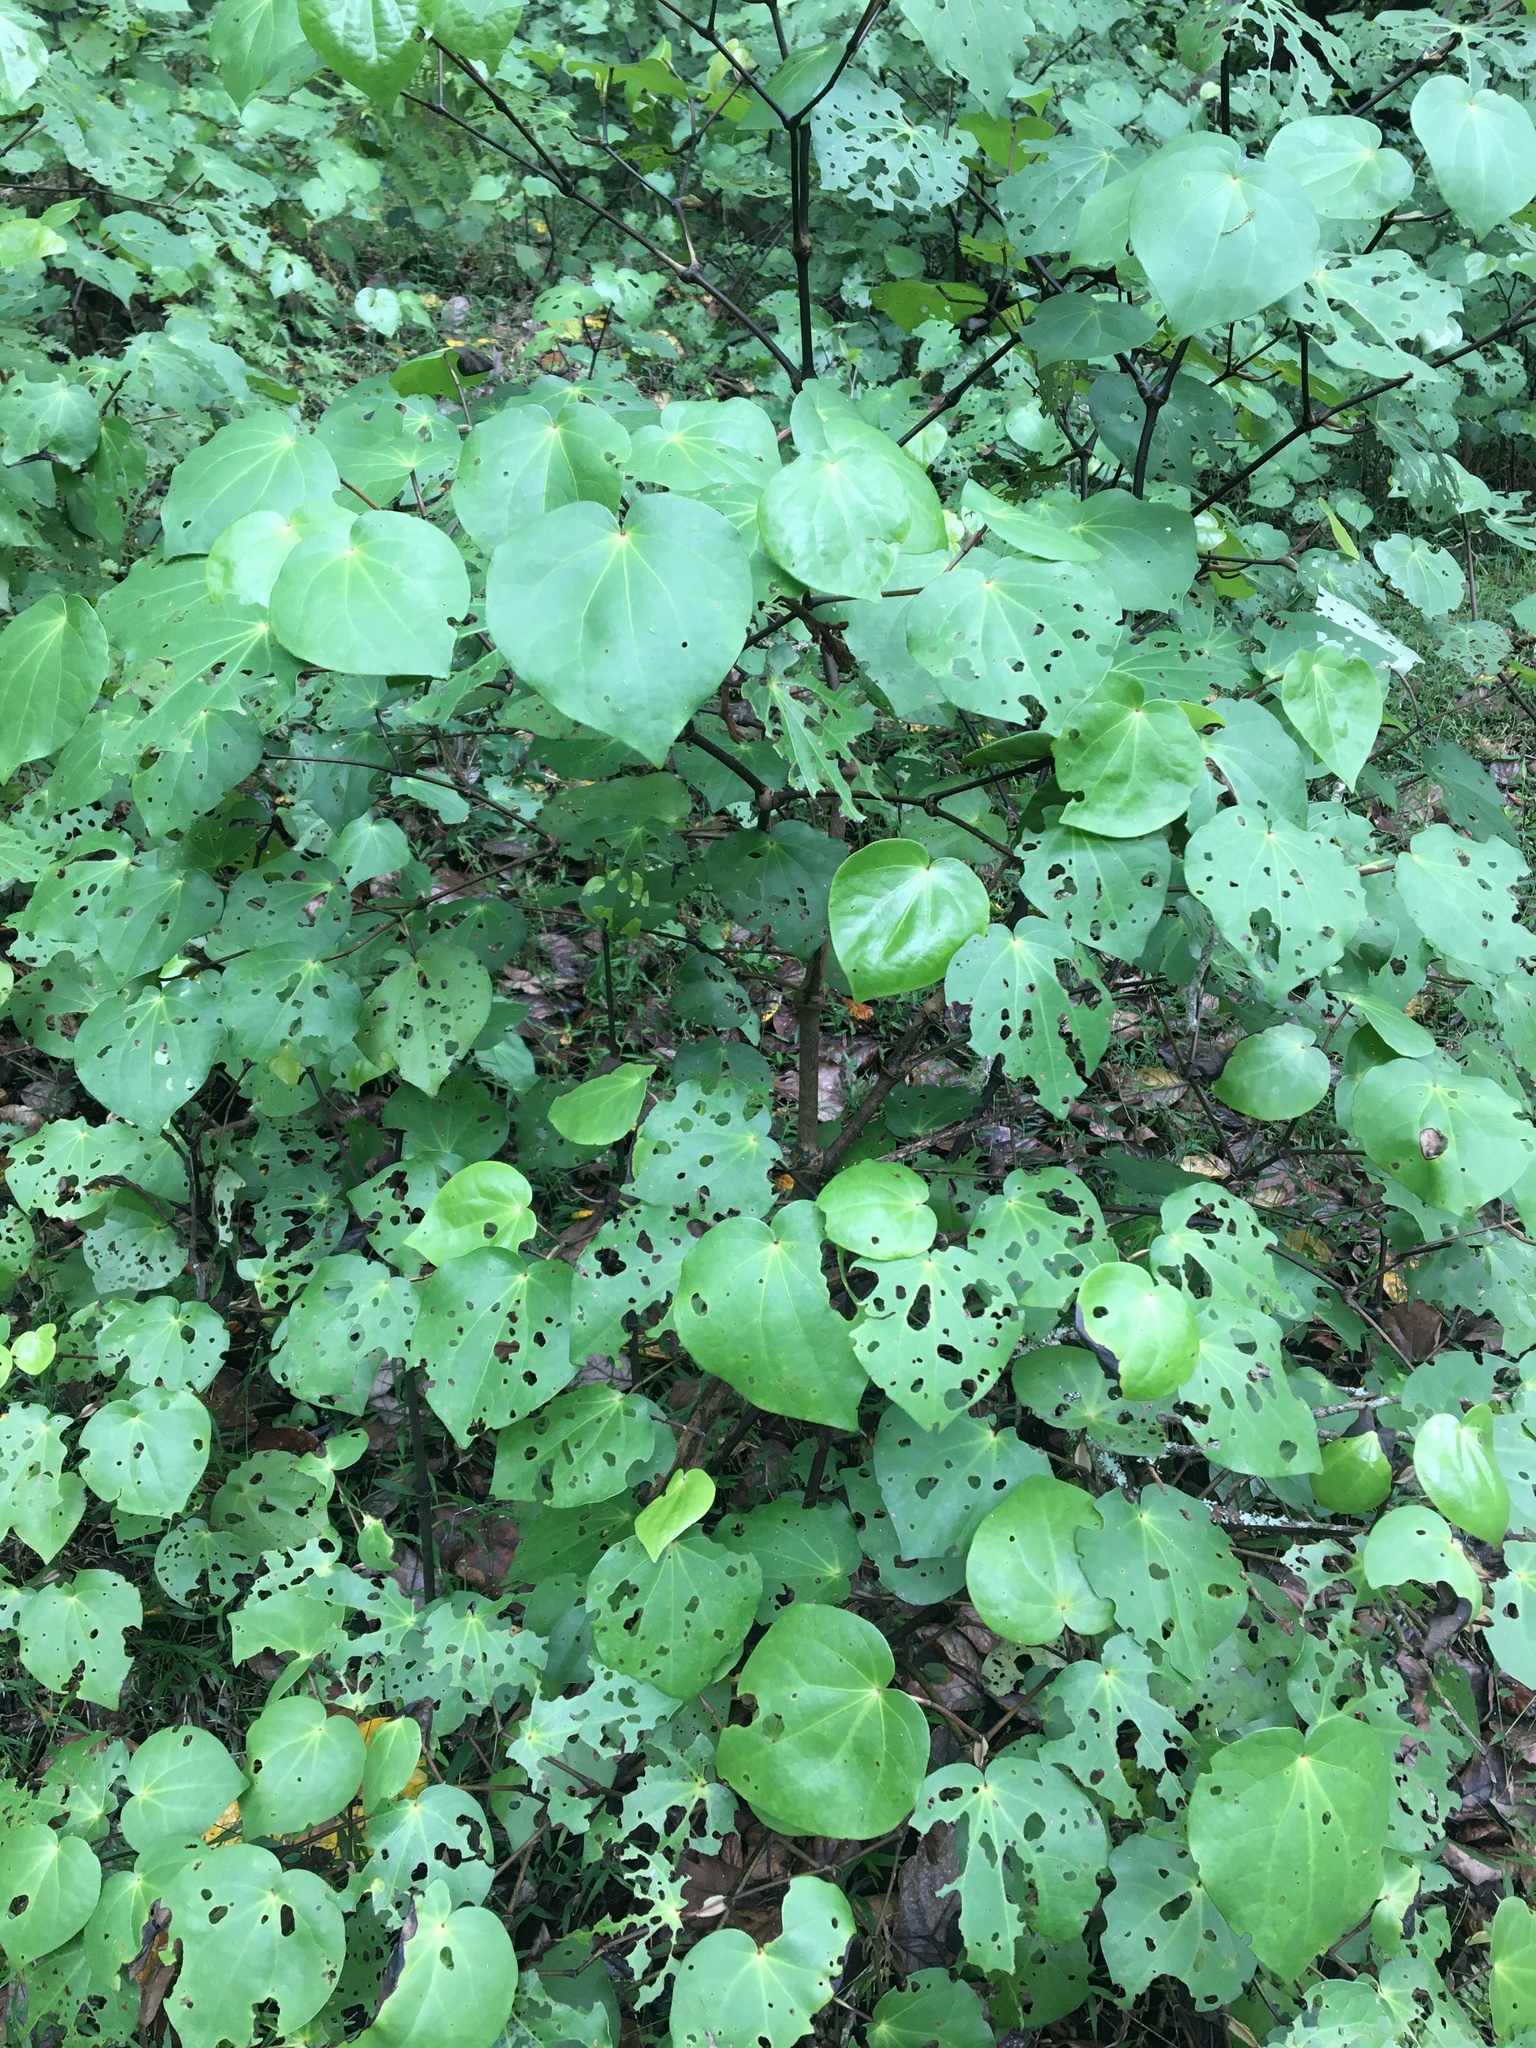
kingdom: Plantae
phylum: Tracheophyta
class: Magnoliopsida
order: Piperales
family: Piperaceae
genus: Macropiper
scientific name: Macropiper excelsum
